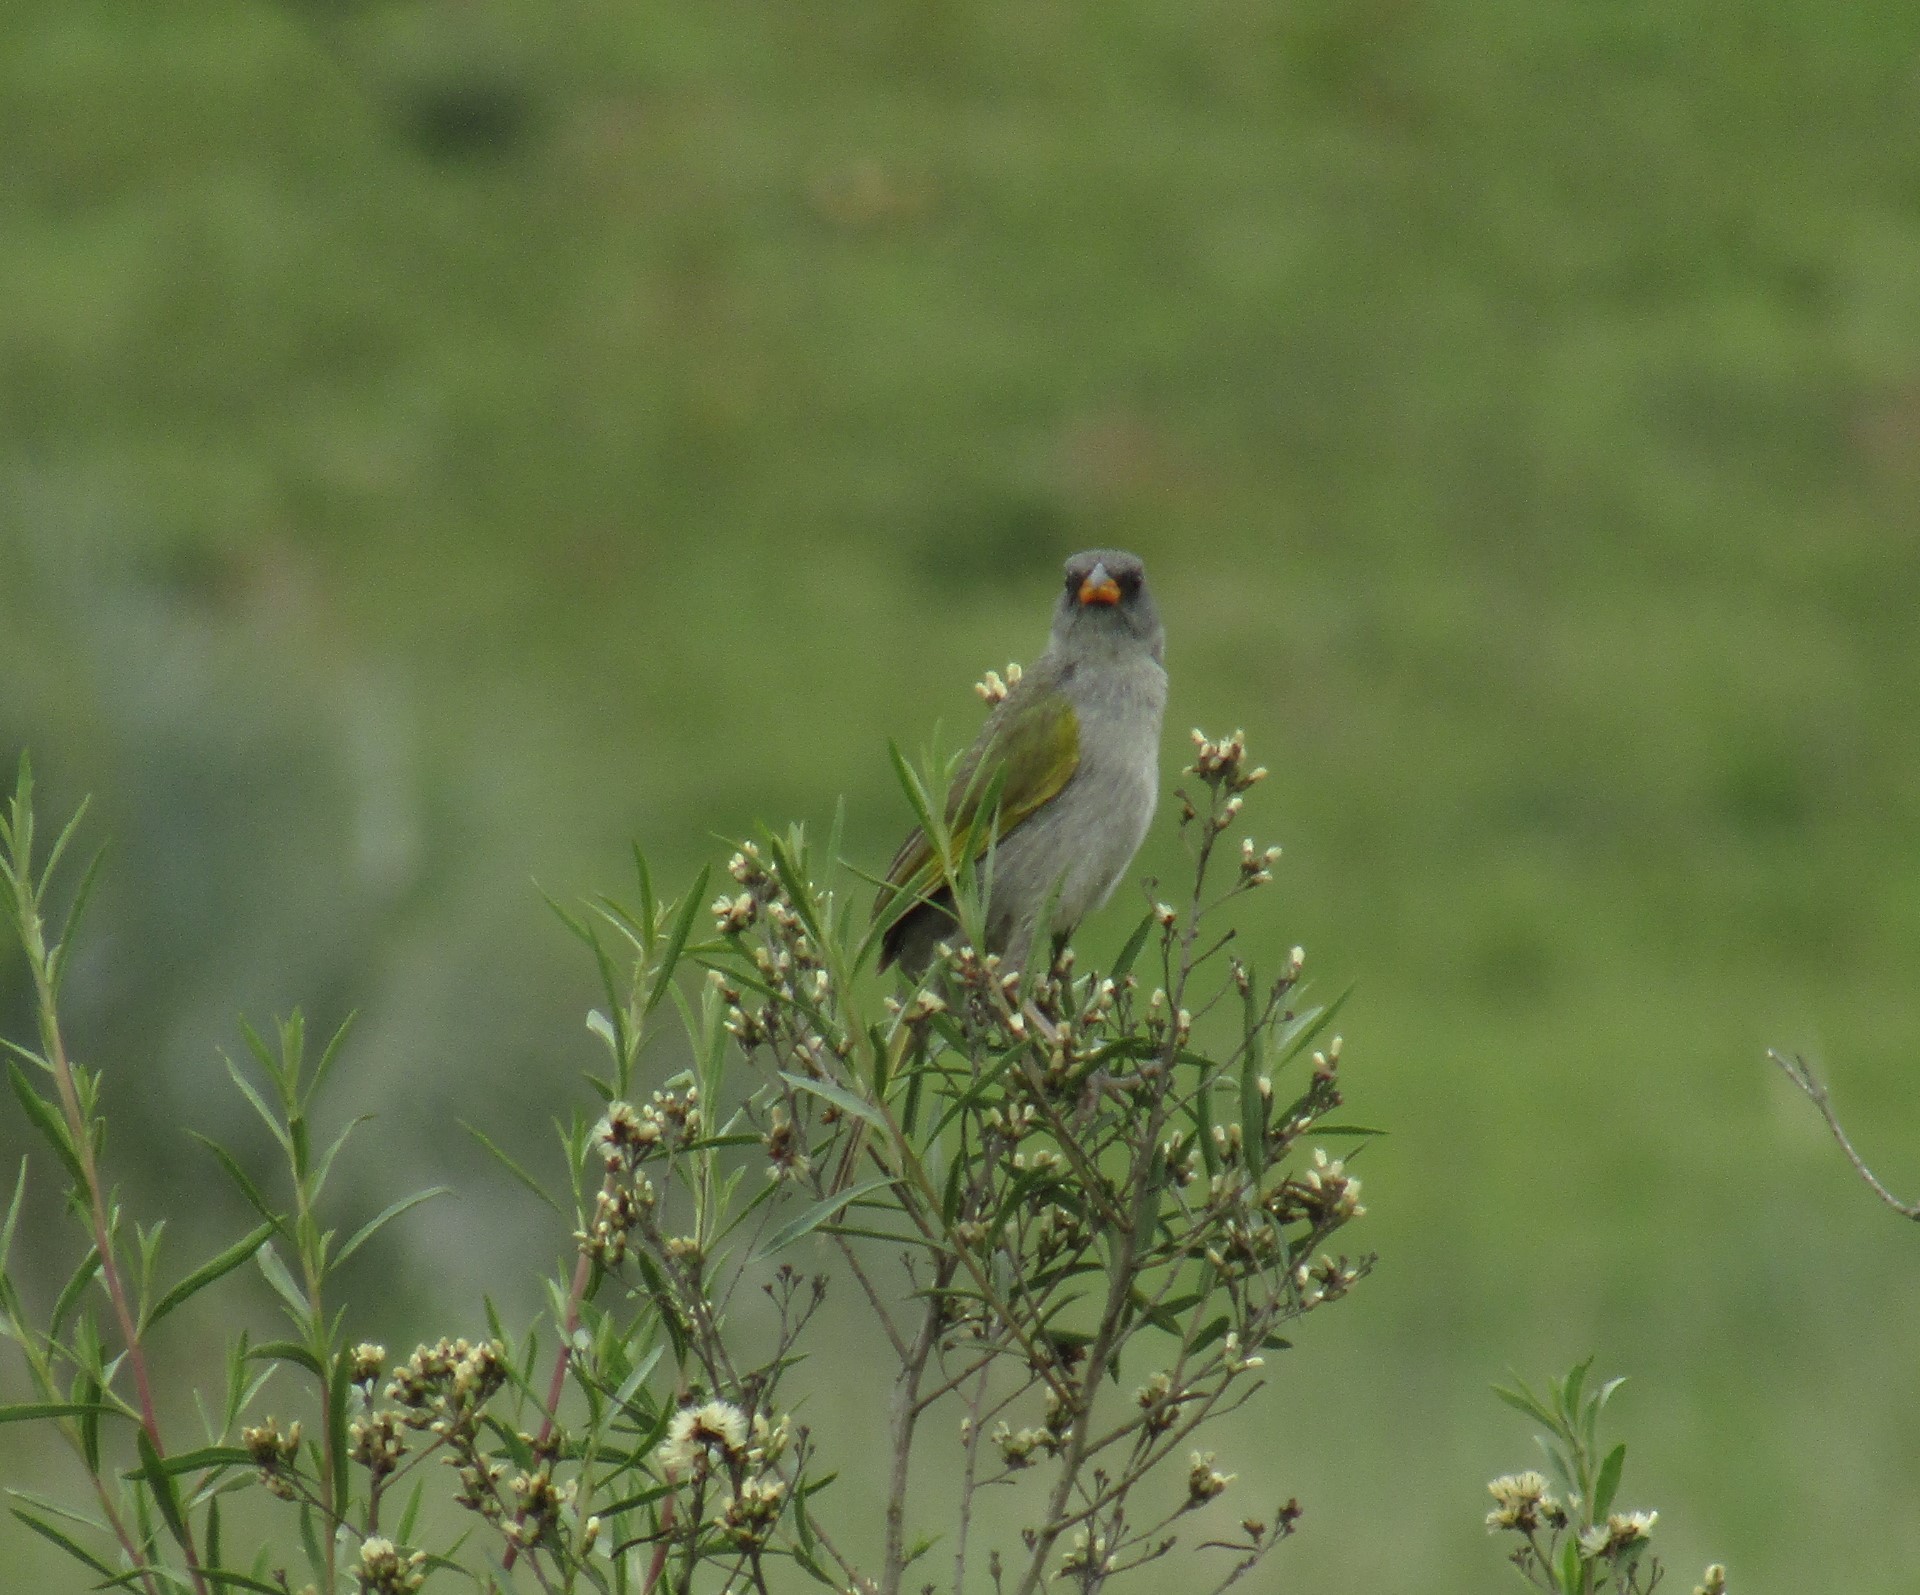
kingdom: Animalia
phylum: Chordata
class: Aves
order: Passeriformes
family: Thraupidae
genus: Embernagra
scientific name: Embernagra platensis
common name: Pampa finch
